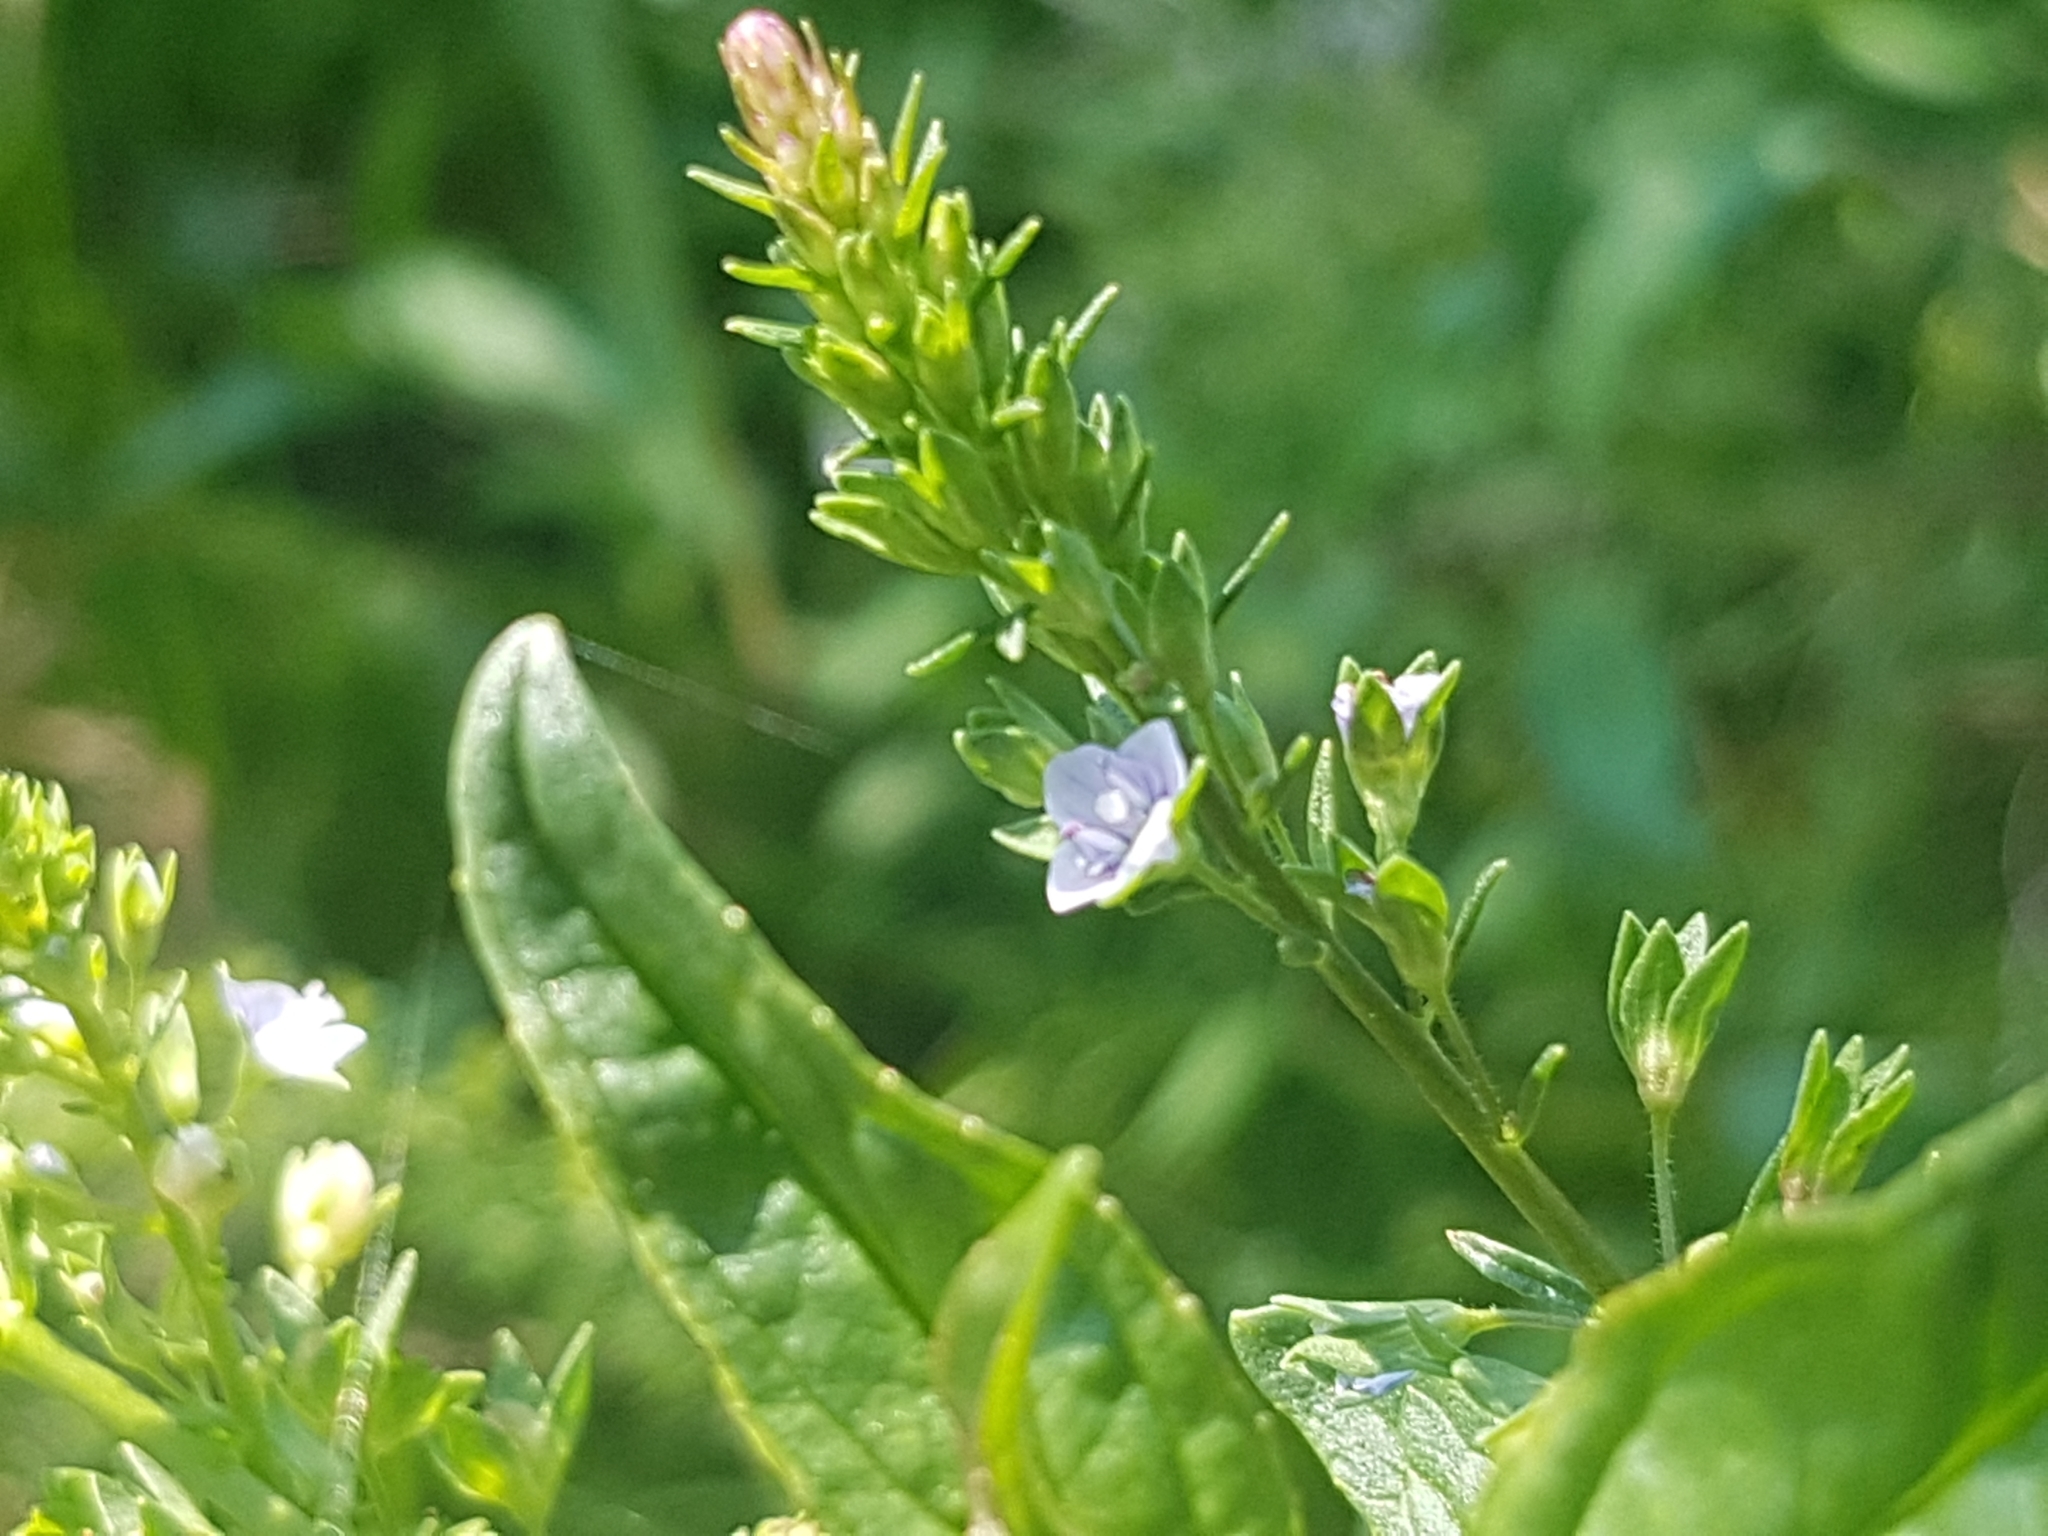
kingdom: Plantae
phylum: Tracheophyta
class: Magnoliopsida
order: Lamiales
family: Plantaginaceae
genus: Veronica
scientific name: Veronica anagallis-aquatica
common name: Water speedwell
